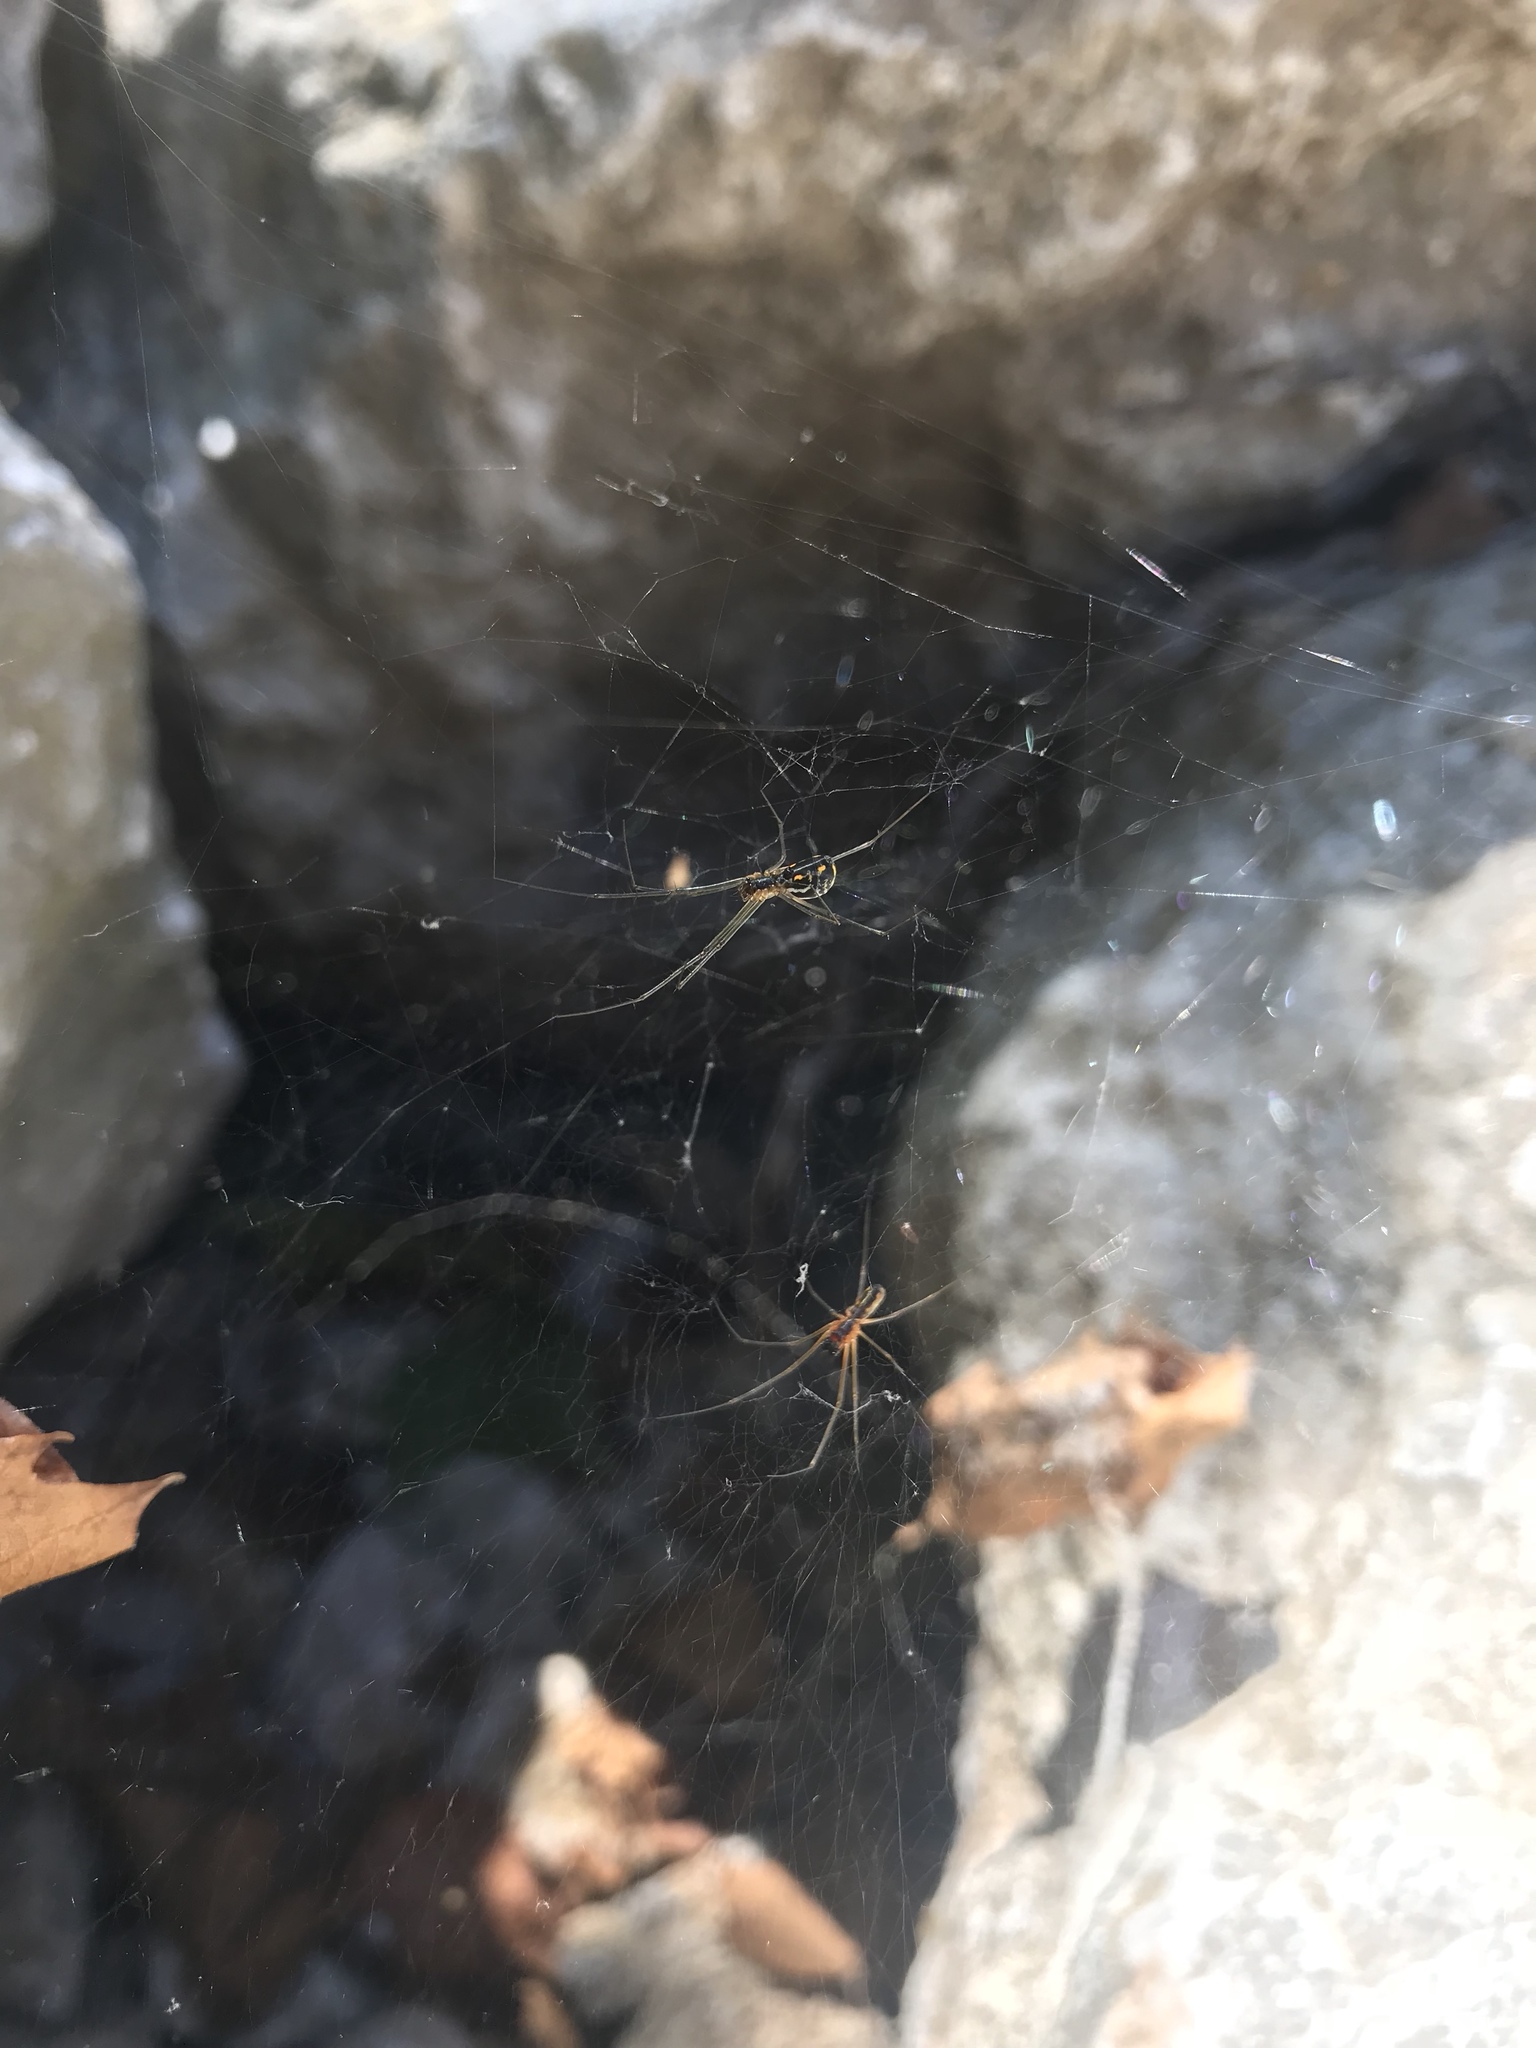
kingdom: Animalia
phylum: Arthropoda
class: Arachnida
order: Araneae
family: Linyphiidae
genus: Frontinella
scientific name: Frontinella pyramitela
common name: Bowl-and-doily spider
